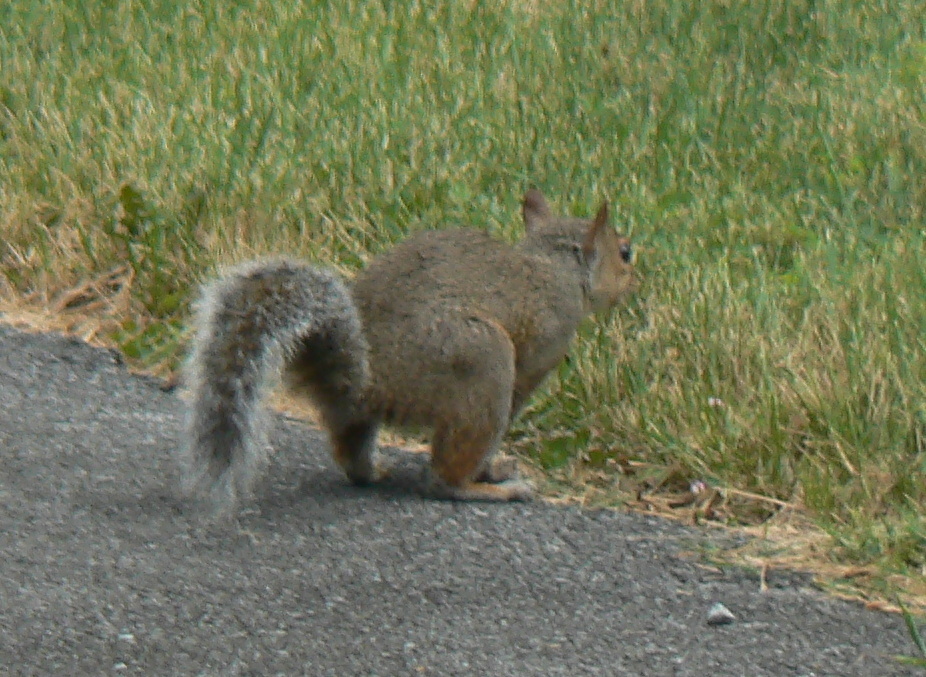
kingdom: Animalia
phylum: Chordata
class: Mammalia
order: Rodentia
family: Sciuridae
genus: Sciurus
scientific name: Sciurus carolinensis
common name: Eastern gray squirrel
